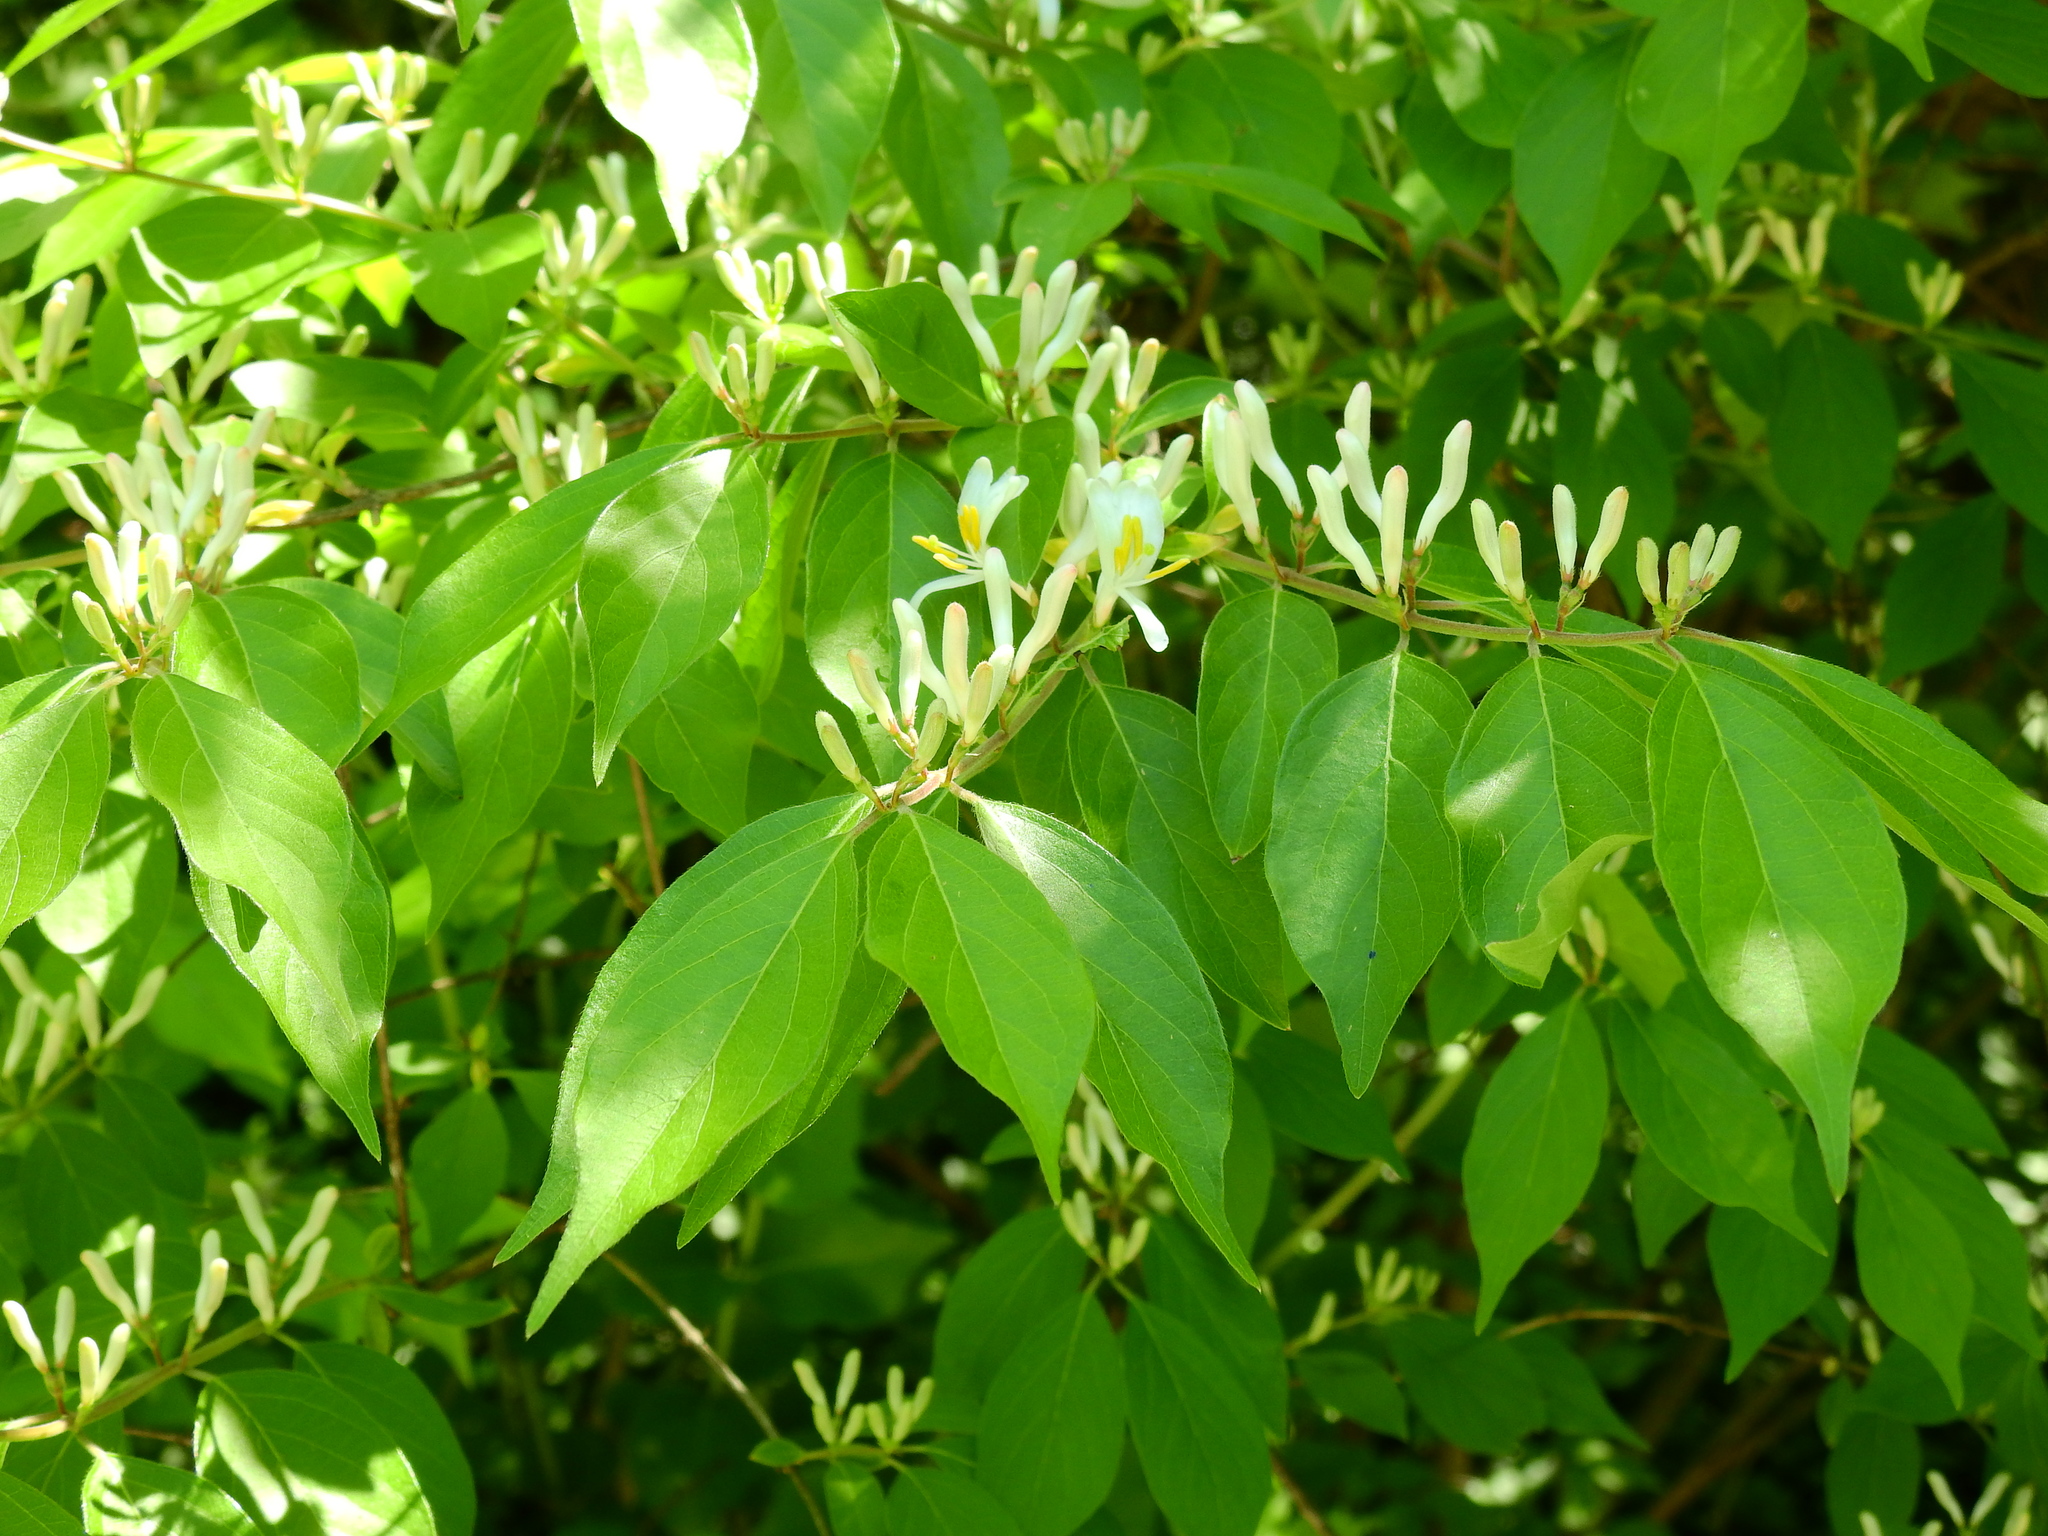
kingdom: Plantae
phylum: Tracheophyta
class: Magnoliopsida
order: Dipsacales
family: Caprifoliaceae
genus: Lonicera
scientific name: Lonicera maackii
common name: Amur honeysuckle
